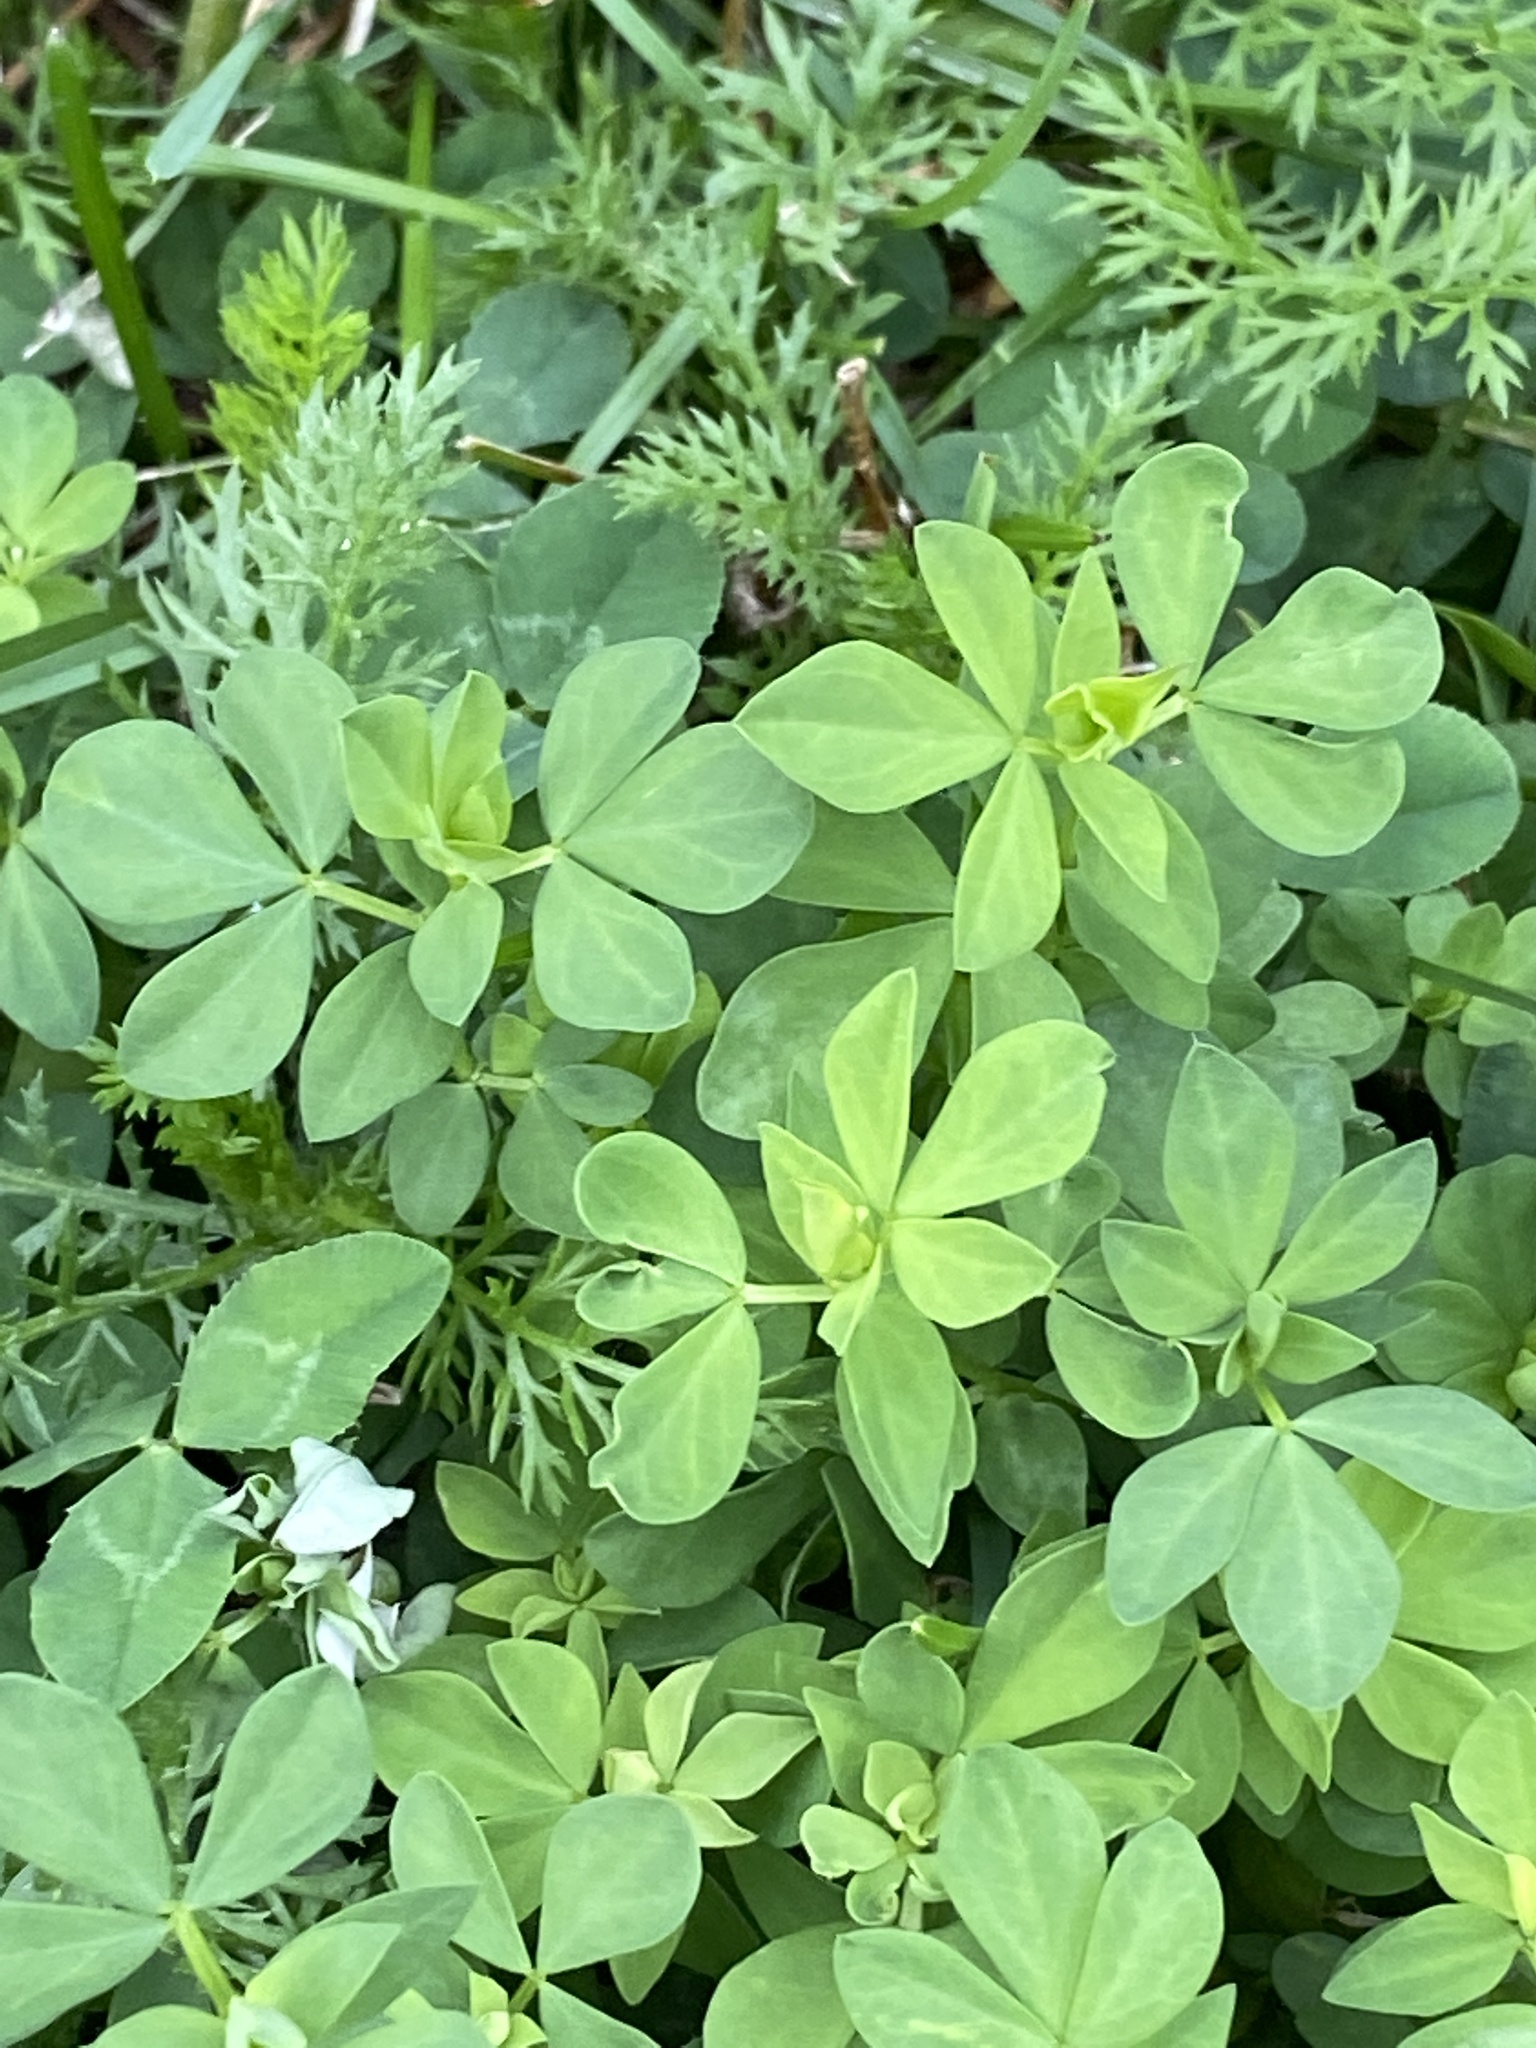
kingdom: Plantae
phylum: Tracheophyta
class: Magnoliopsida
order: Fabales
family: Fabaceae
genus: Lotus
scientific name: Lotus corniculatus
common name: Common bird's-foot-trefoil
